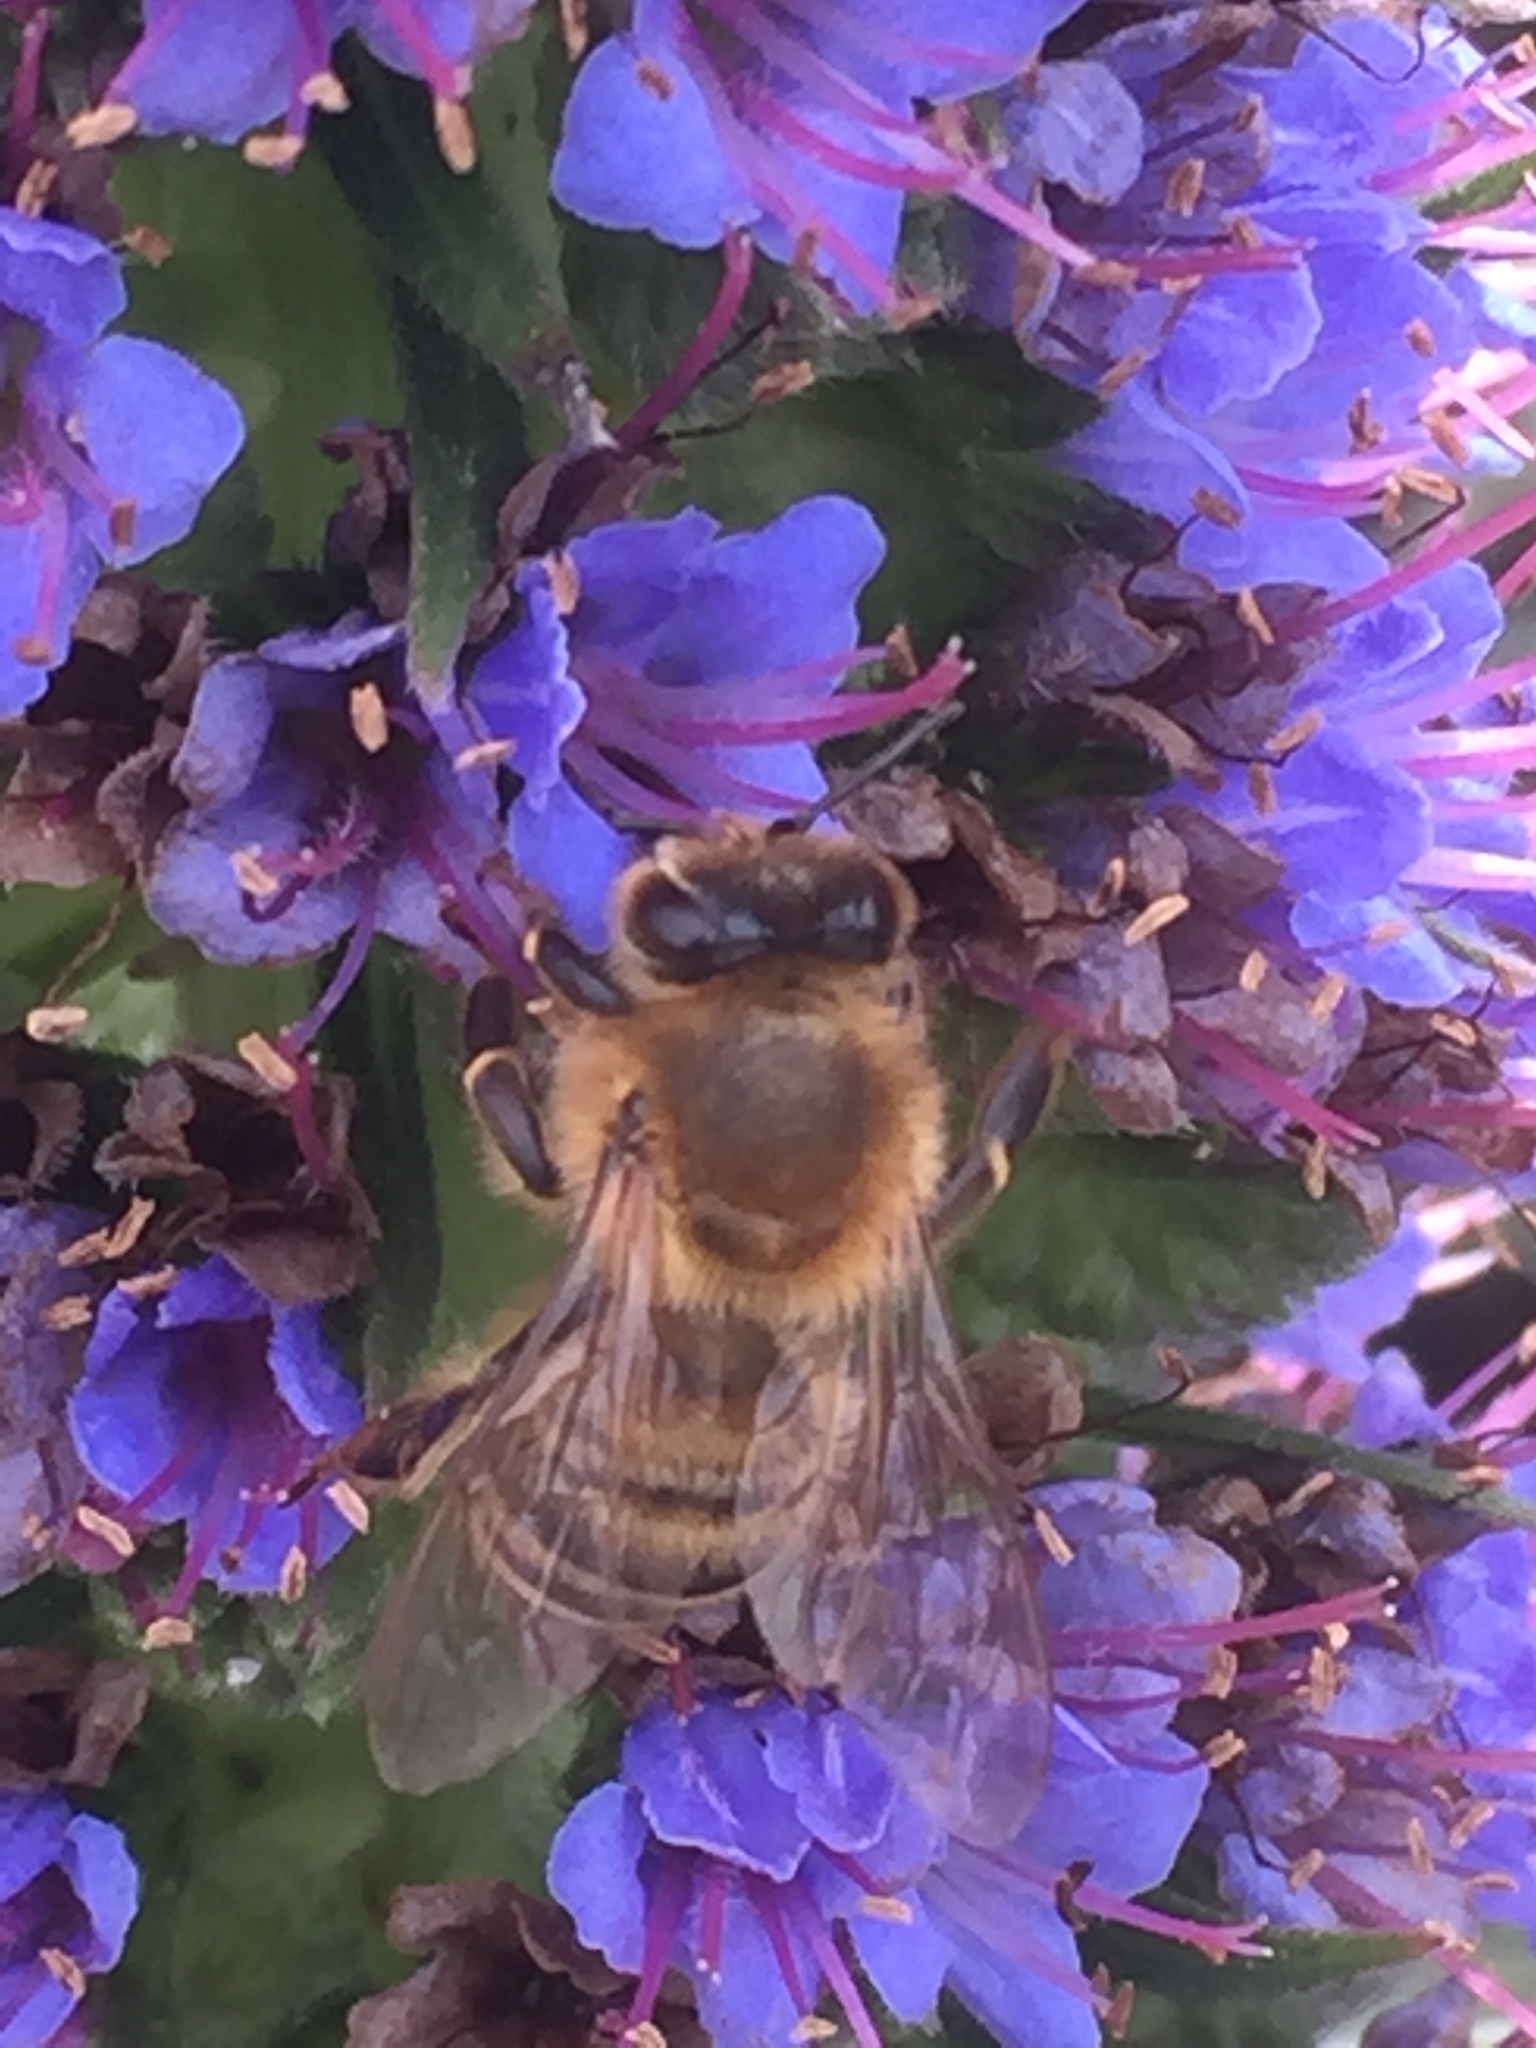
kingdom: Animalia
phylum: Arthropoda
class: Insecta
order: Hymenoptera
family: Apidae
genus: Apis
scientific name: Apis mellifera
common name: Honey bee
